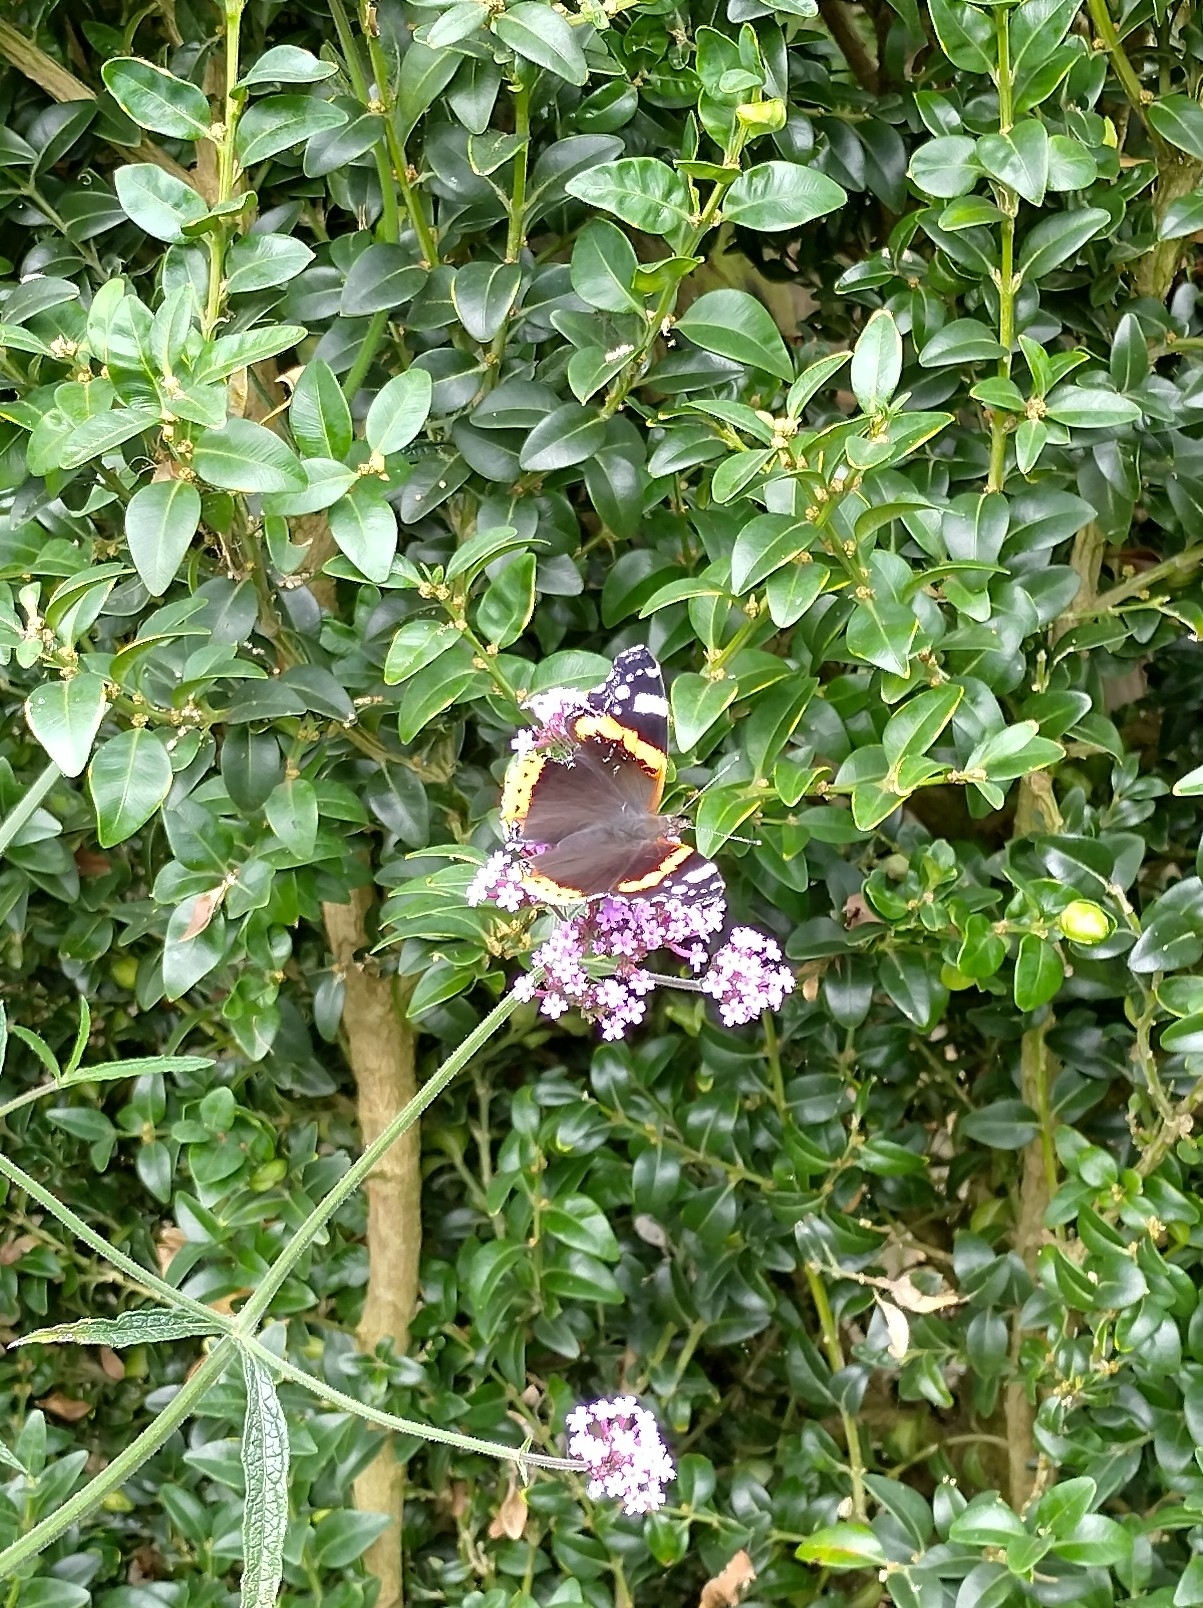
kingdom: Animalia
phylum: Arthropoda
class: Insecta
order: Lepidoptera
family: Nymphalidae
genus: Vanessa
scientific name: Vanessa atalanta
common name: Red admiral
